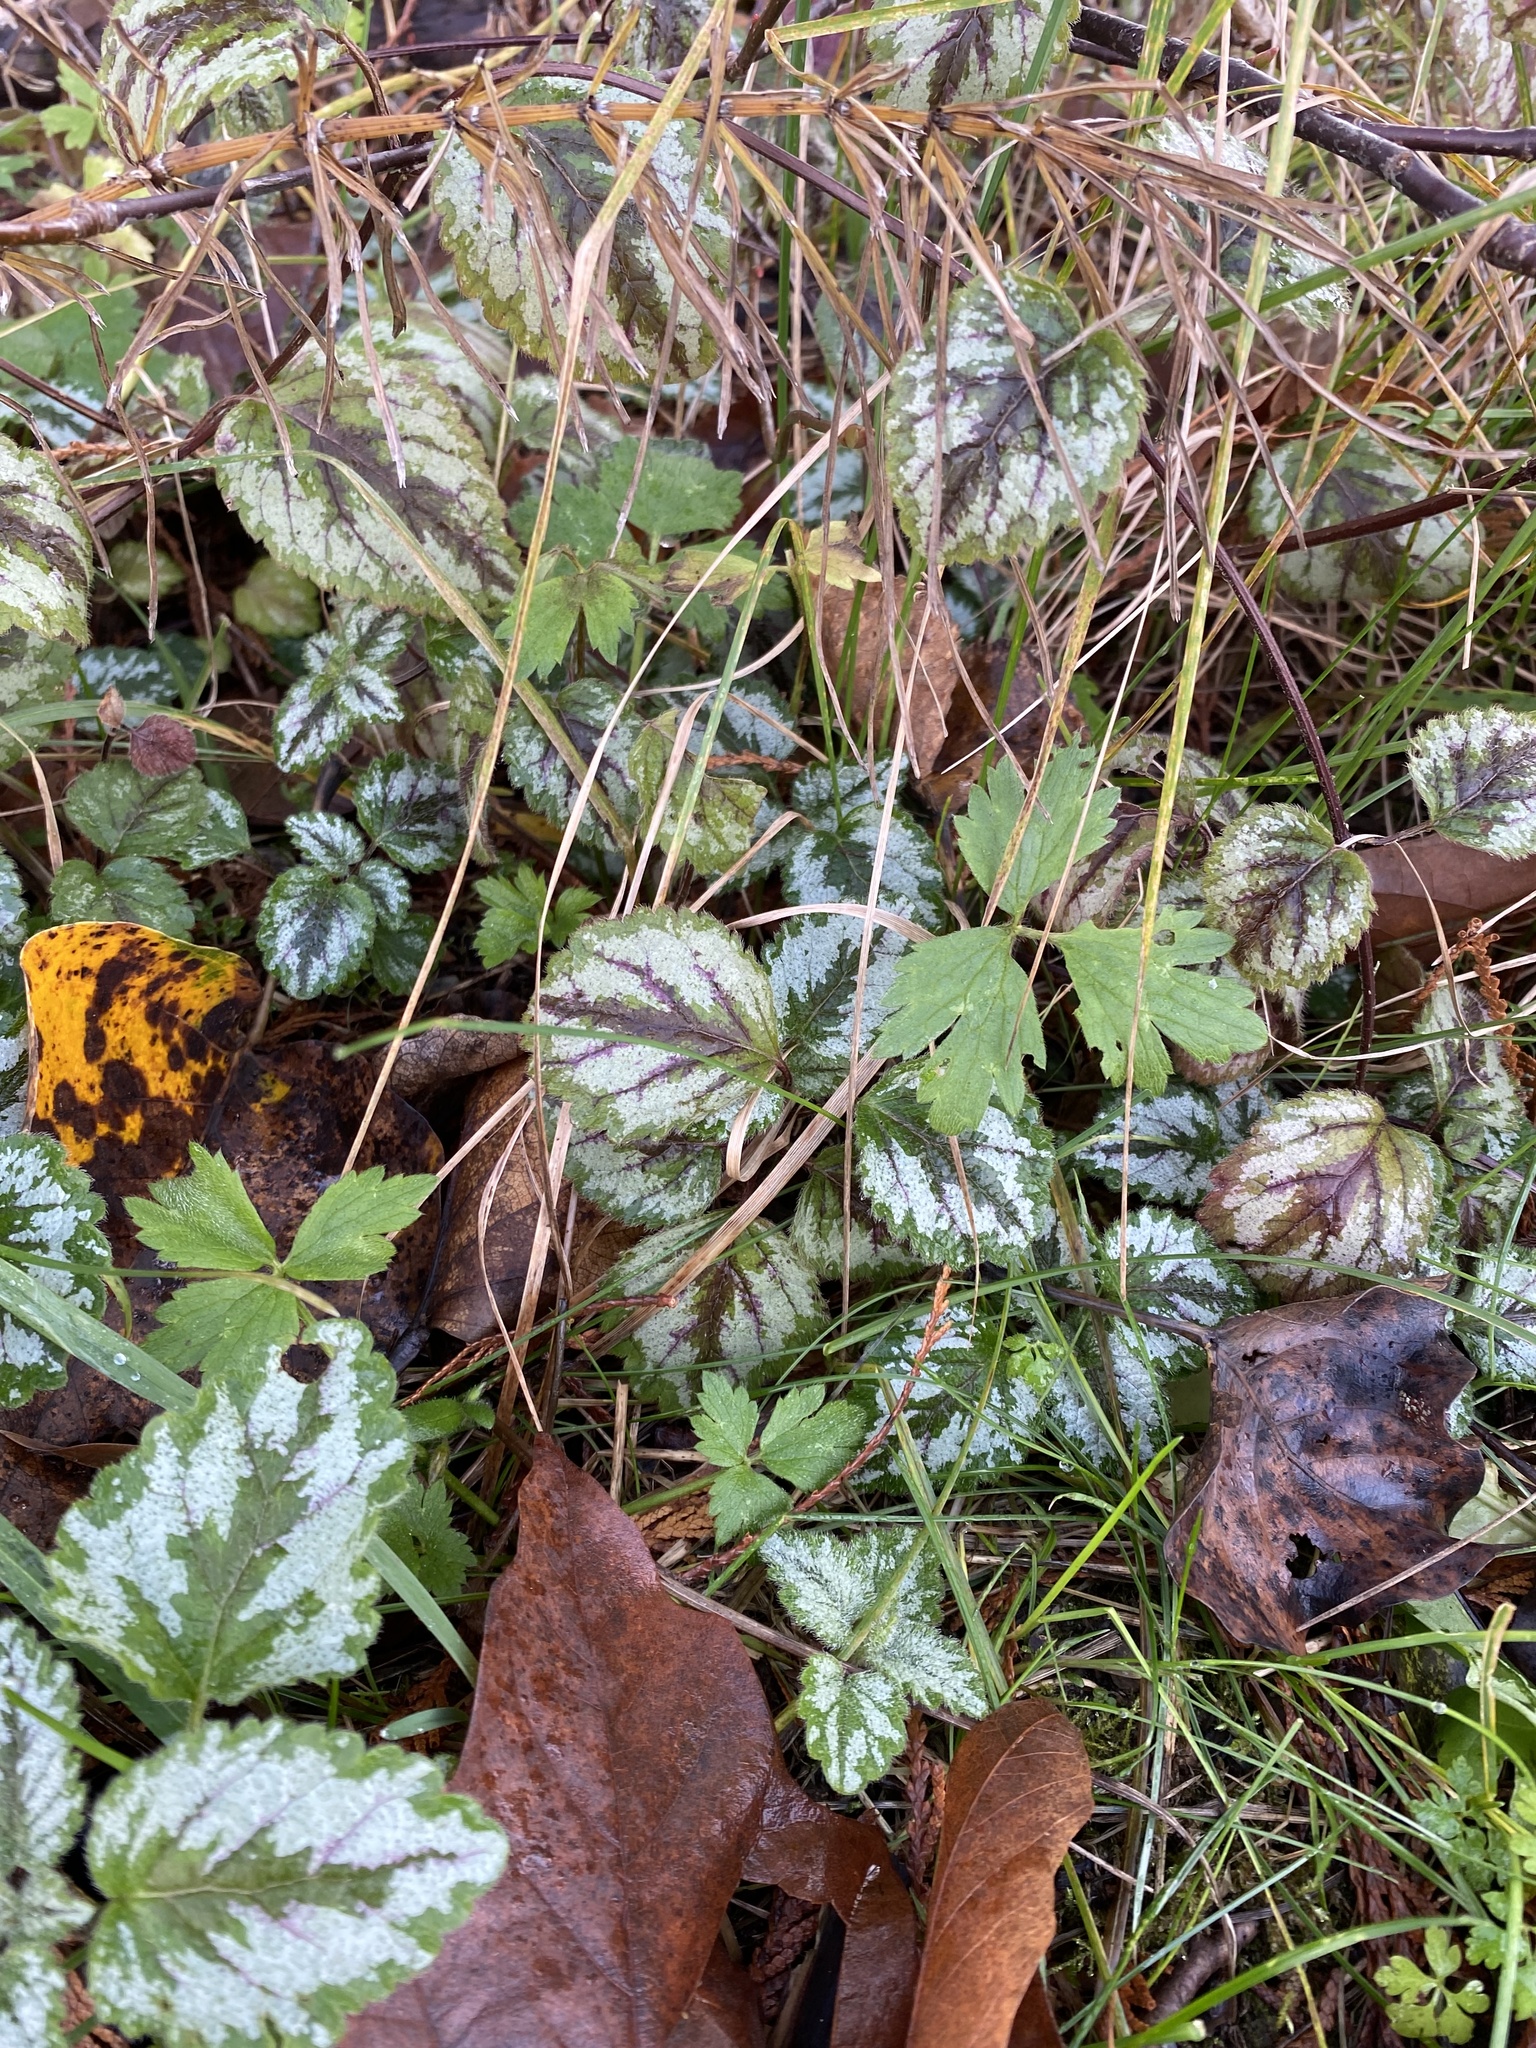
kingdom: Plantae
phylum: Tracheophyta
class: Magnoliopsida
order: Lamiales
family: Lamiaceae
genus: Lamium
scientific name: Lamium galeobdolon
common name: Yellow archangel
